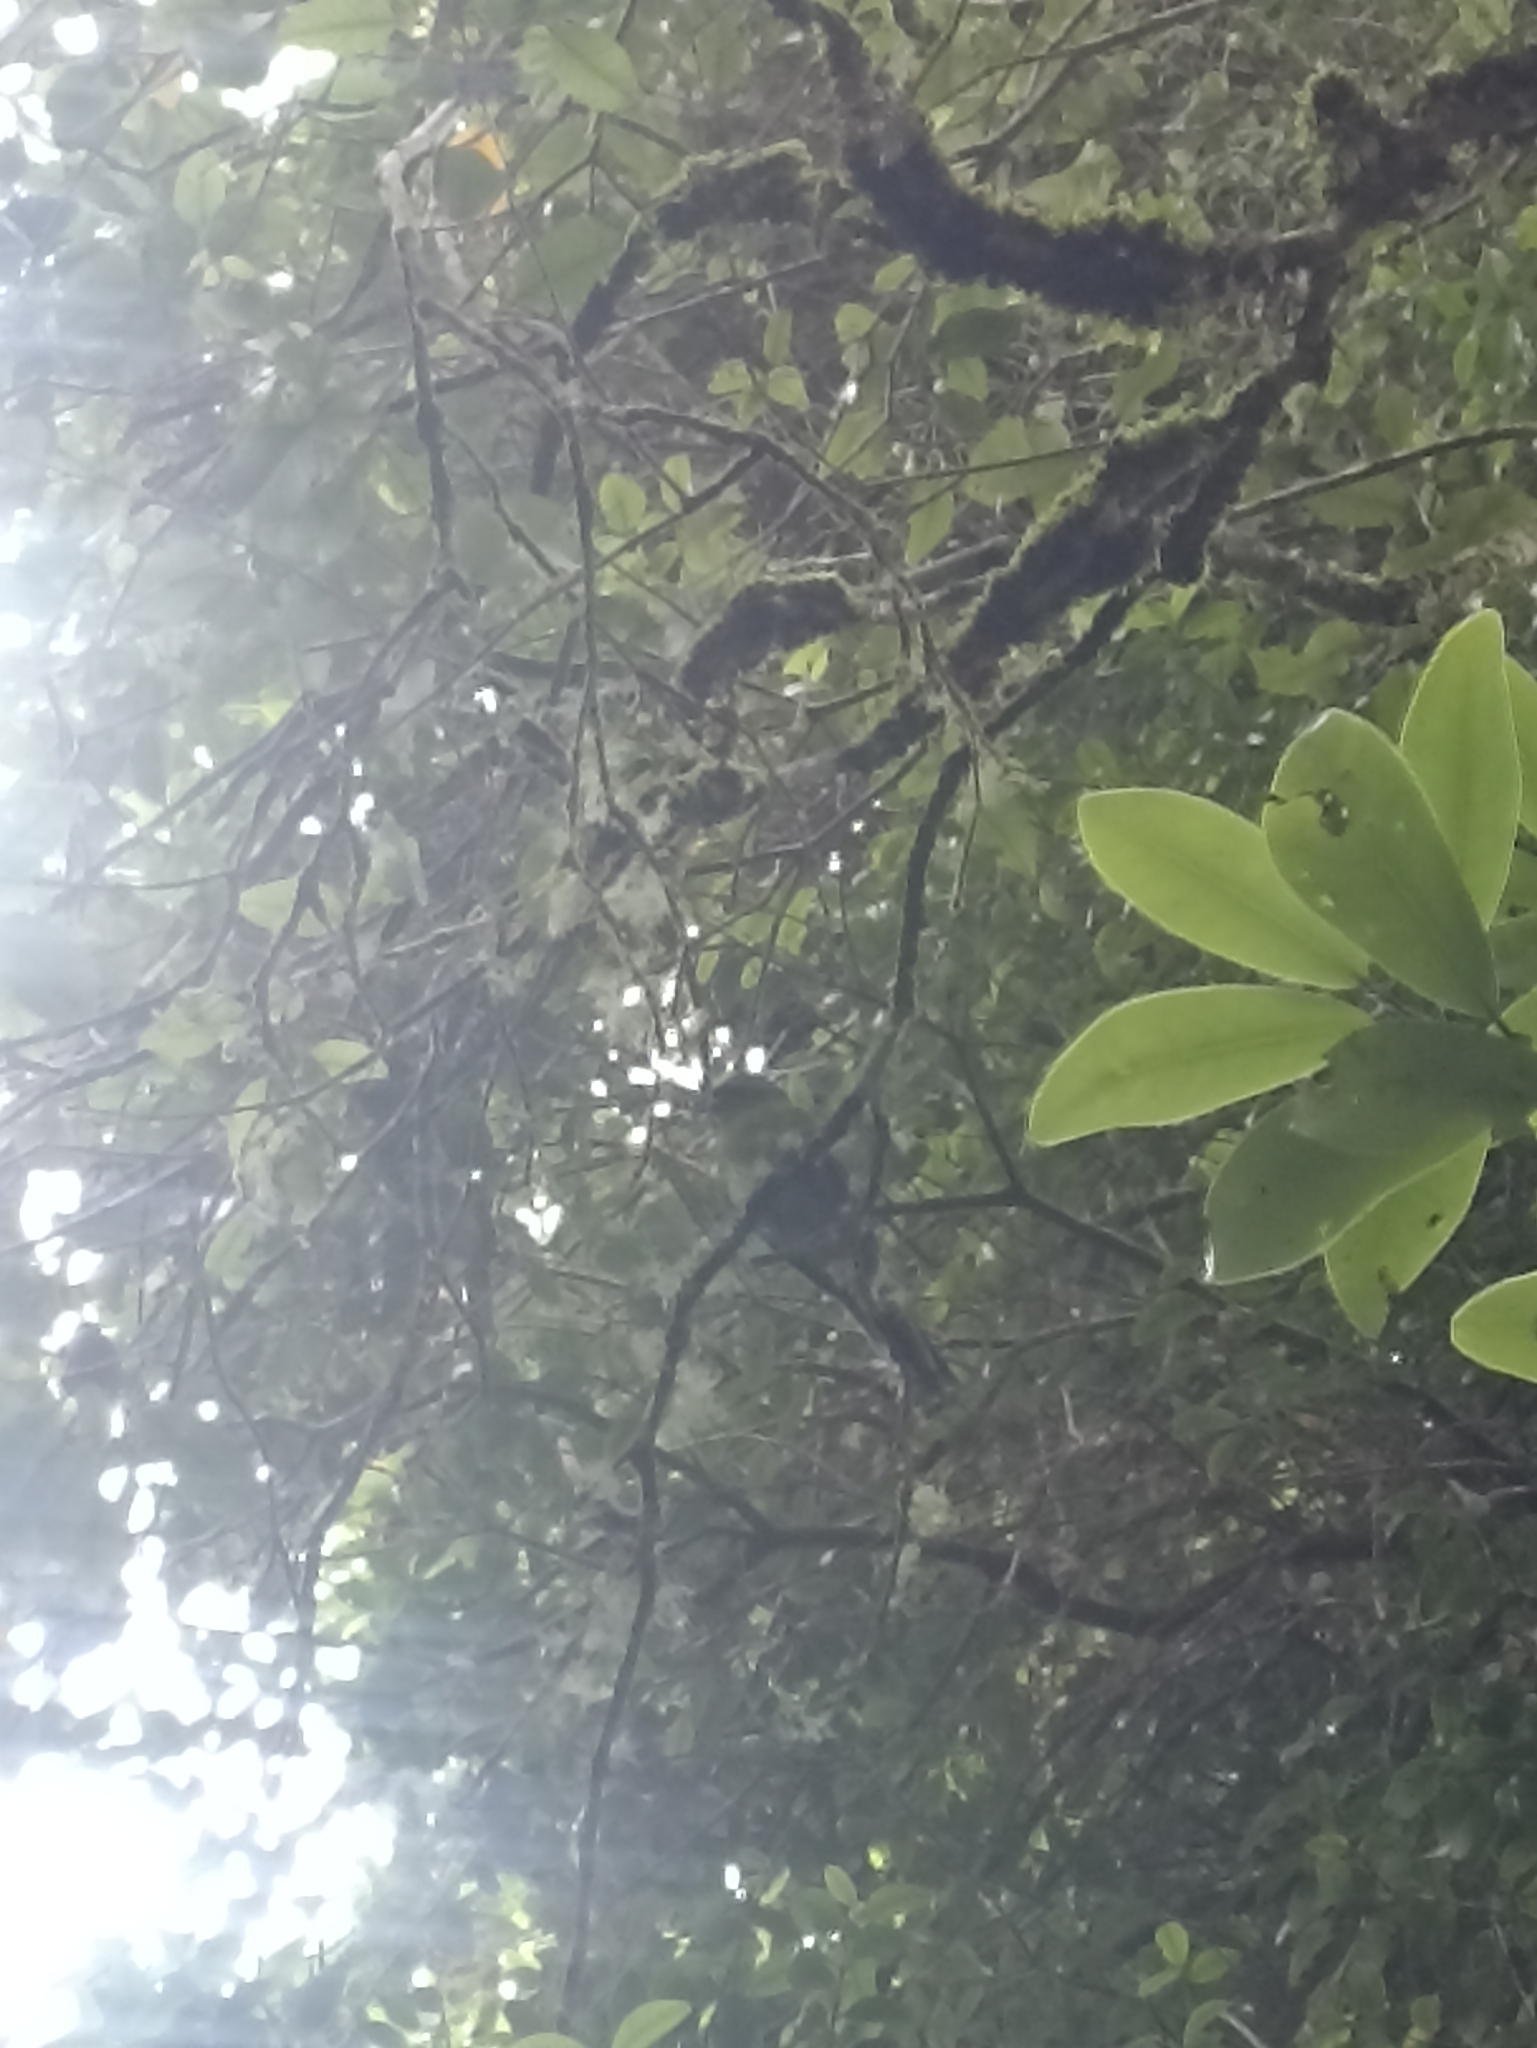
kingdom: Animalia
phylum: Chordata
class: Aves
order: Psittaciformes
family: Psittacidae
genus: Cyanoramphus
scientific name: Cyanoramphus auriceps
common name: Yellow-crowned parakeet
